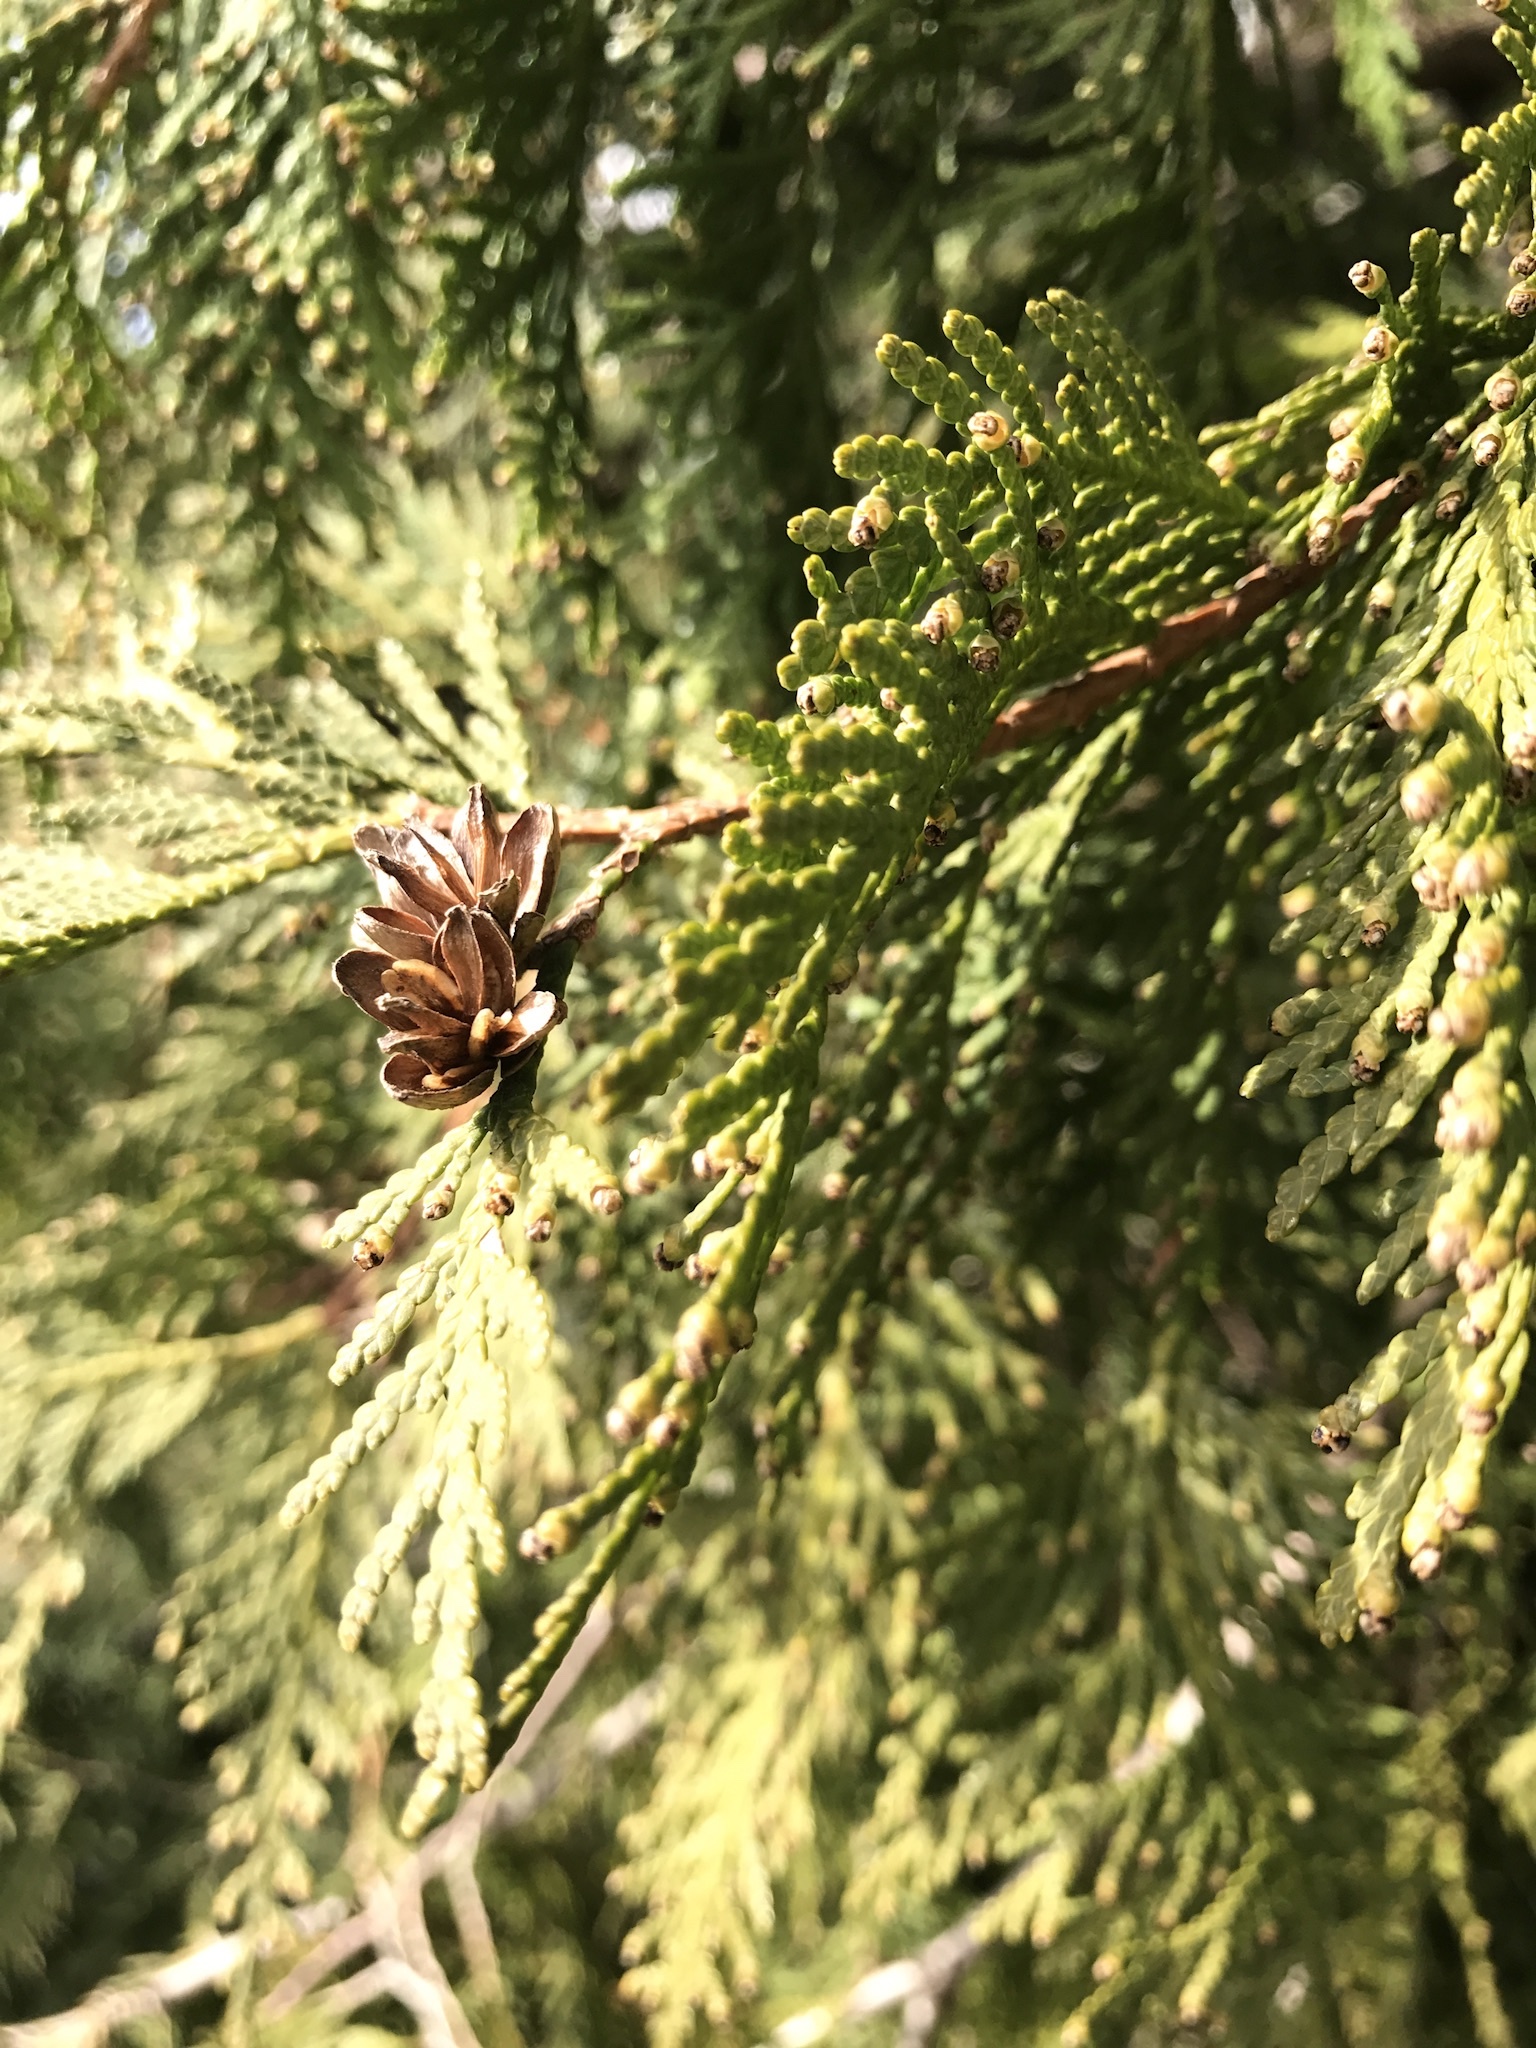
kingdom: Plantae
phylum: Tracheophyta
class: Pinopsida
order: Pinales
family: Cupressaceae
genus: Thuja
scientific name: Thuja occidentalis
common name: Northern white-cedar
